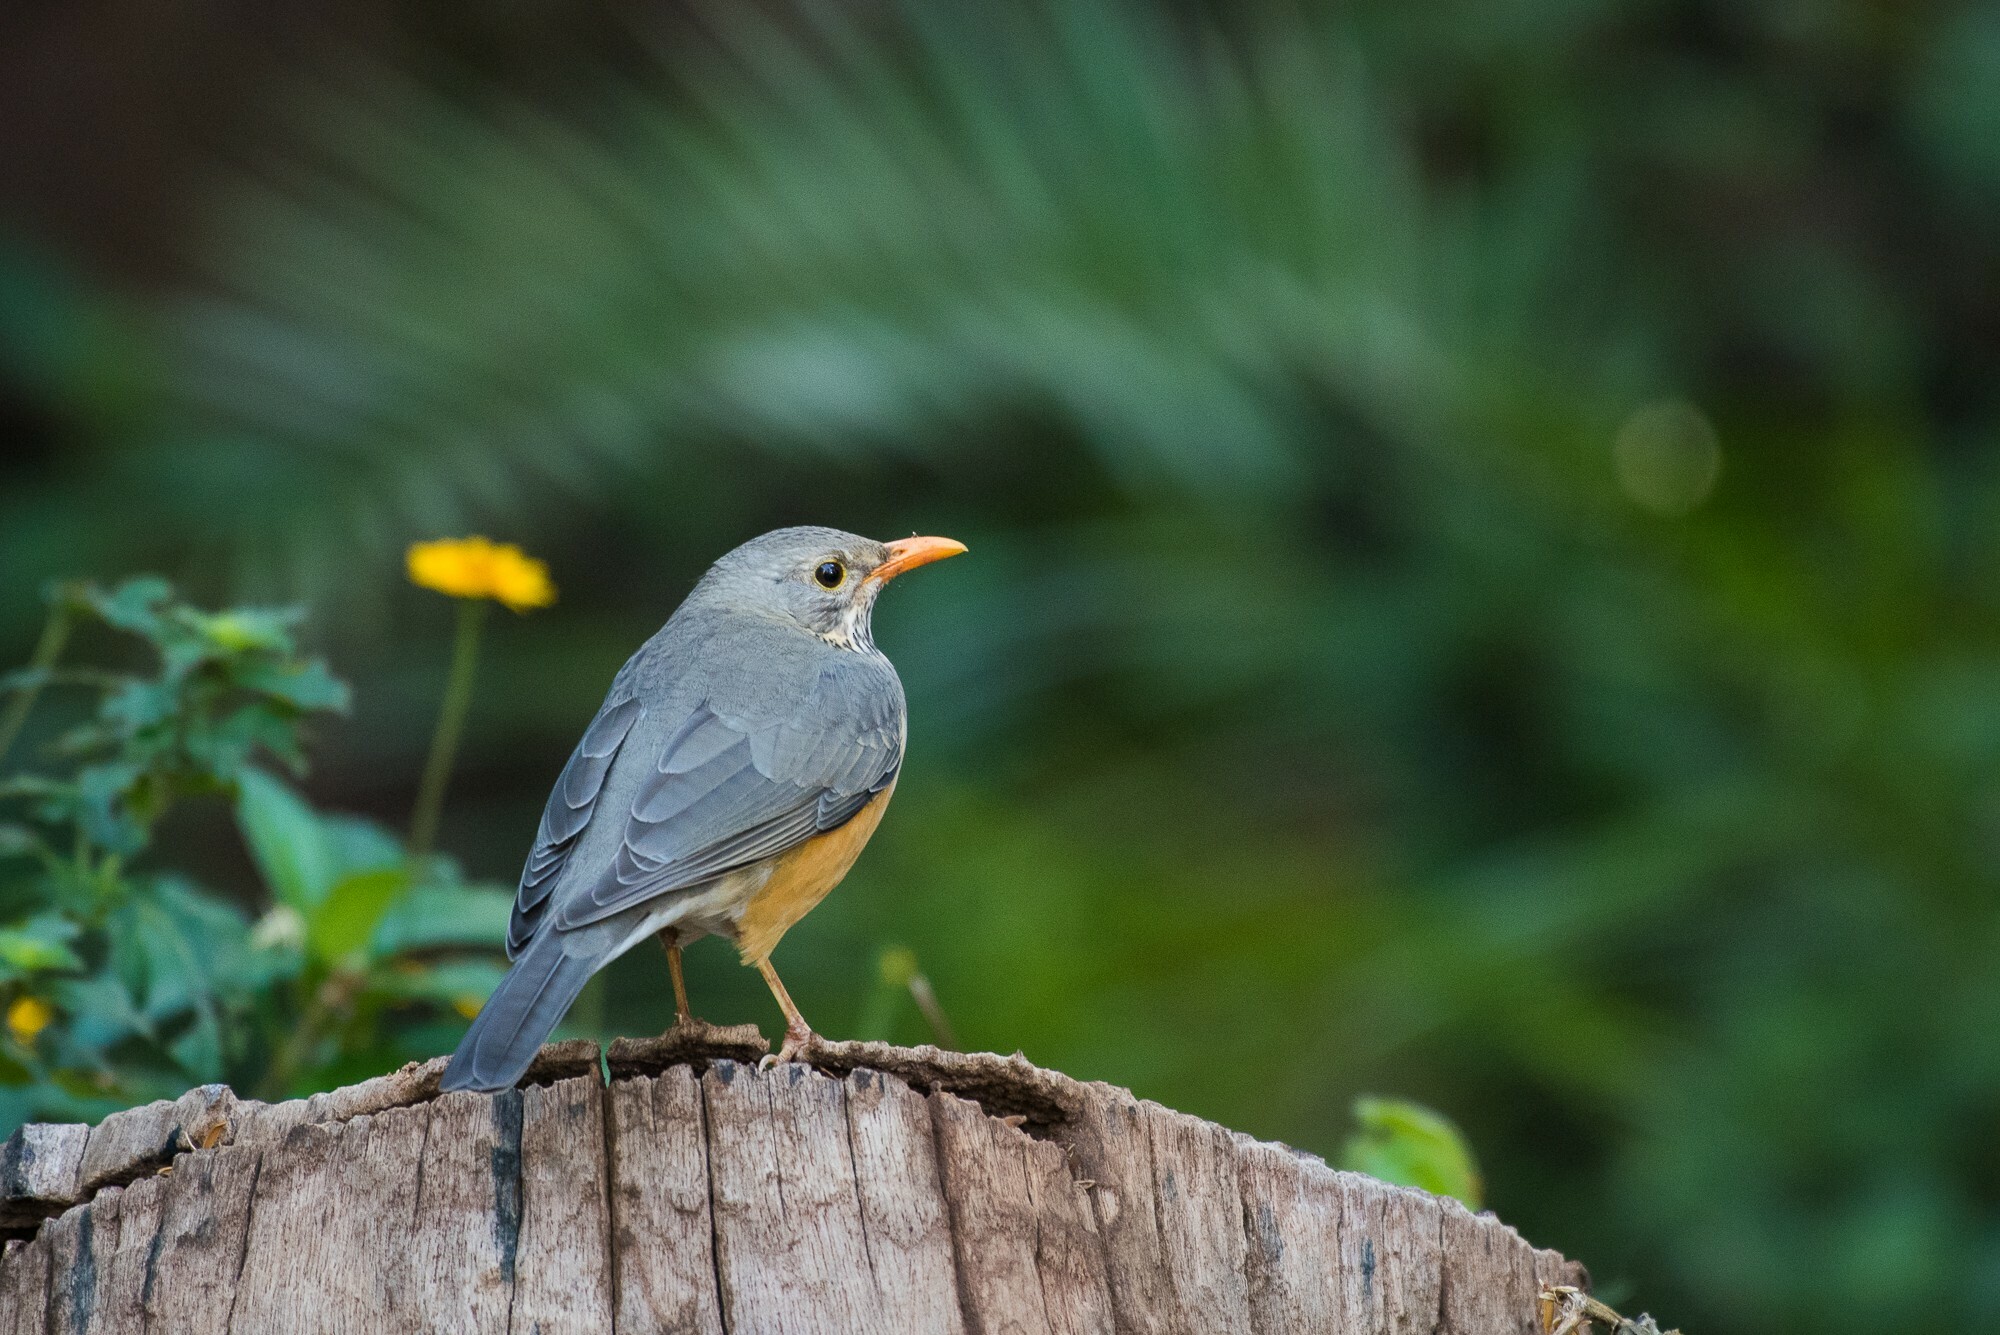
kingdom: Animalia
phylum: Chordata
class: Aves
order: Passeriformes
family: Turdidae
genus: Turdus
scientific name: Turdus libonyana
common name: Kurrichane thrush
